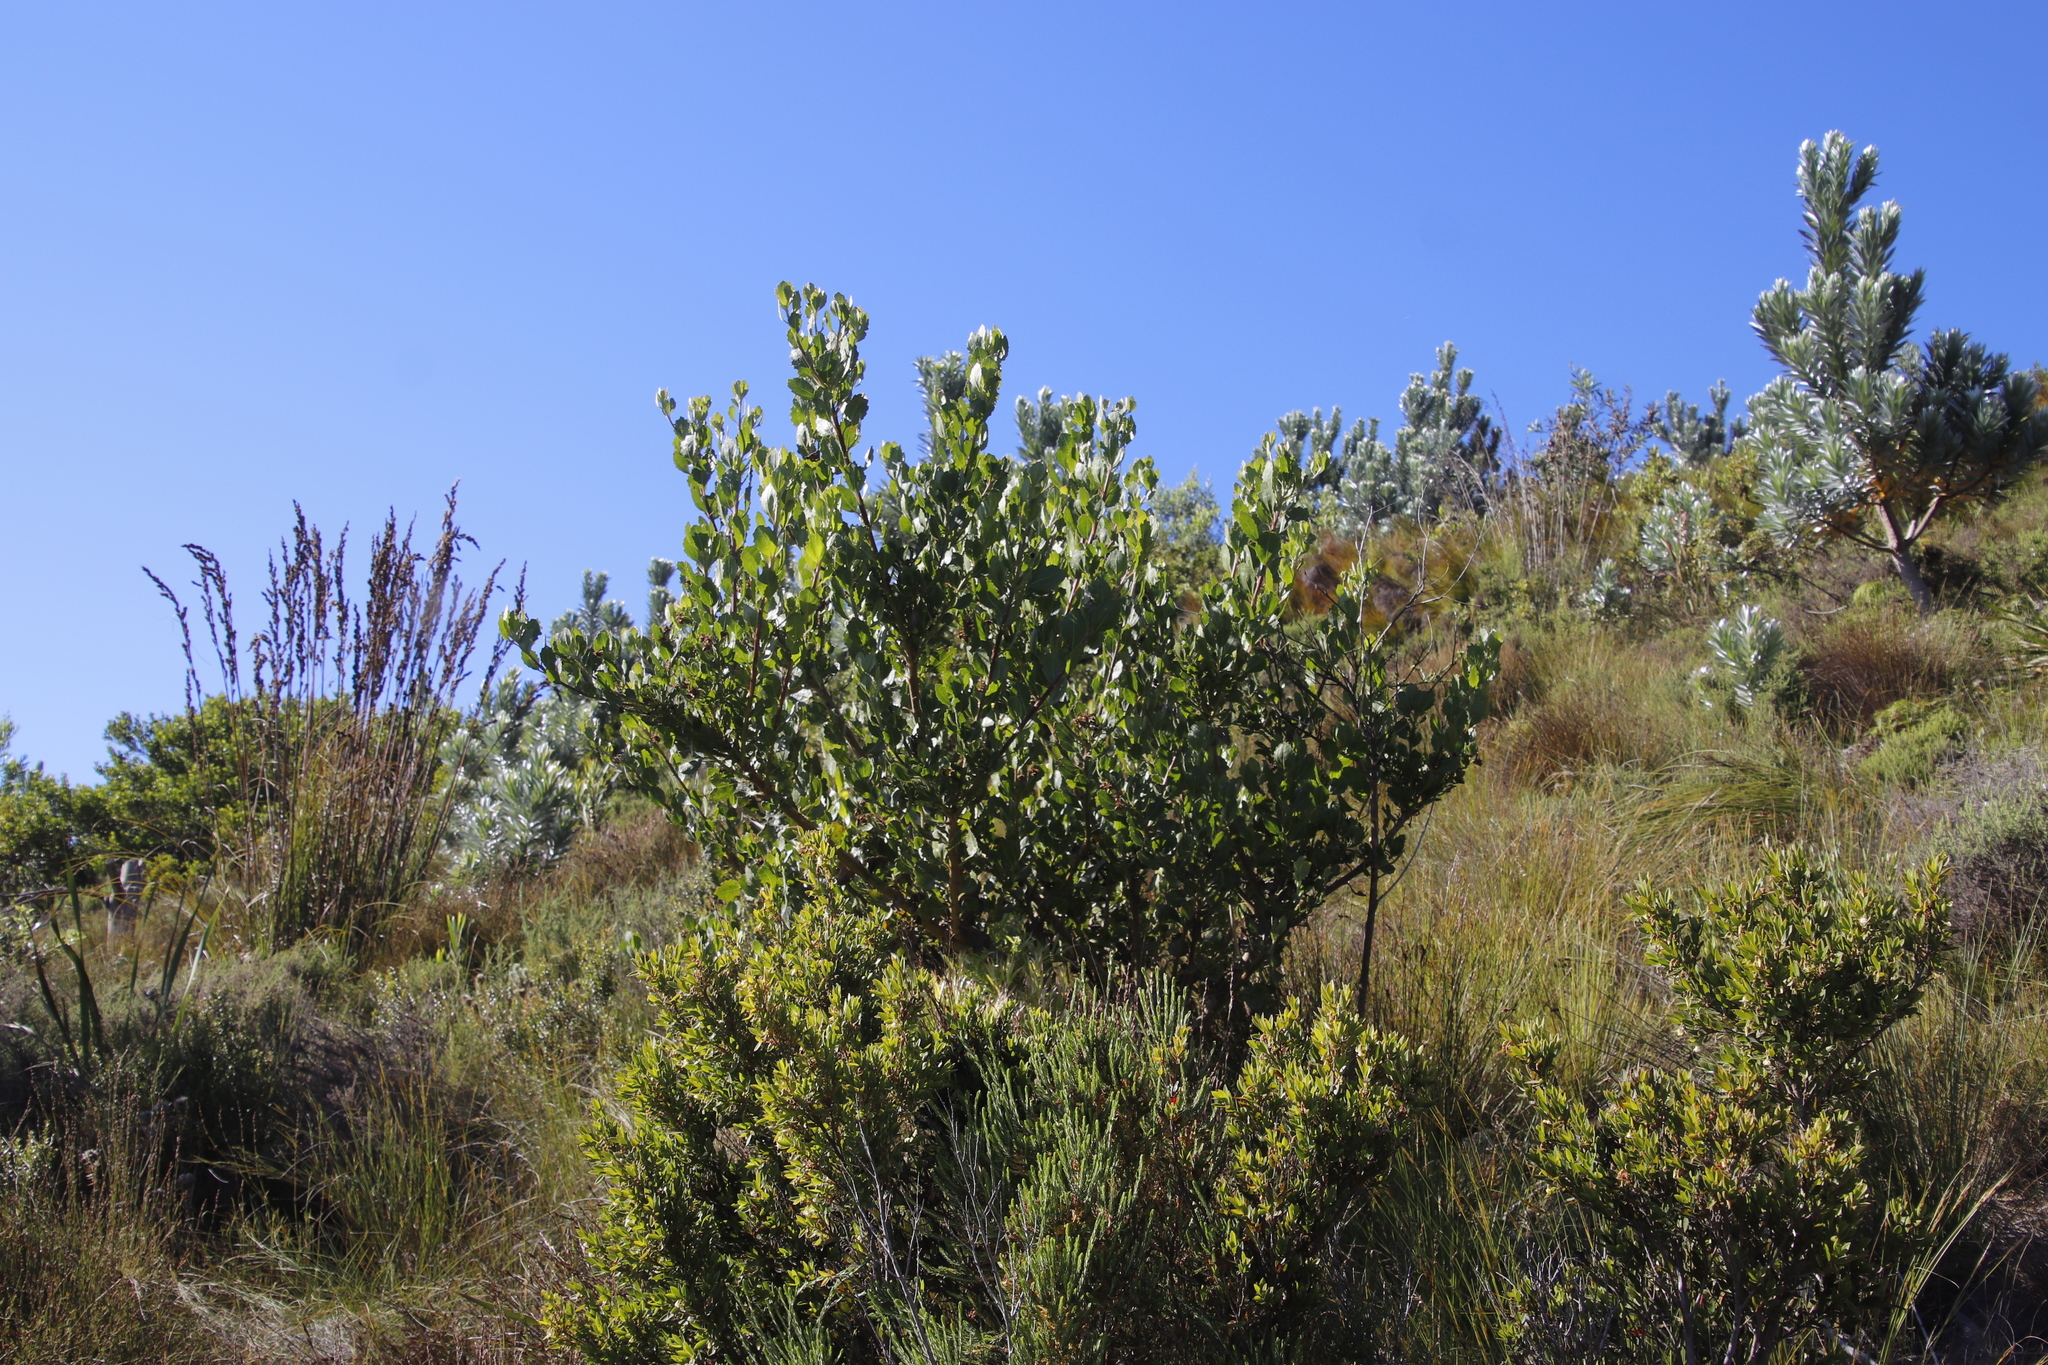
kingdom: Plantae
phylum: Tracheophyta
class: Magnoliopsida
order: Asterales
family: Asteraceae
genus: Osteospermum
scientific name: Osteospermum moniliferum
